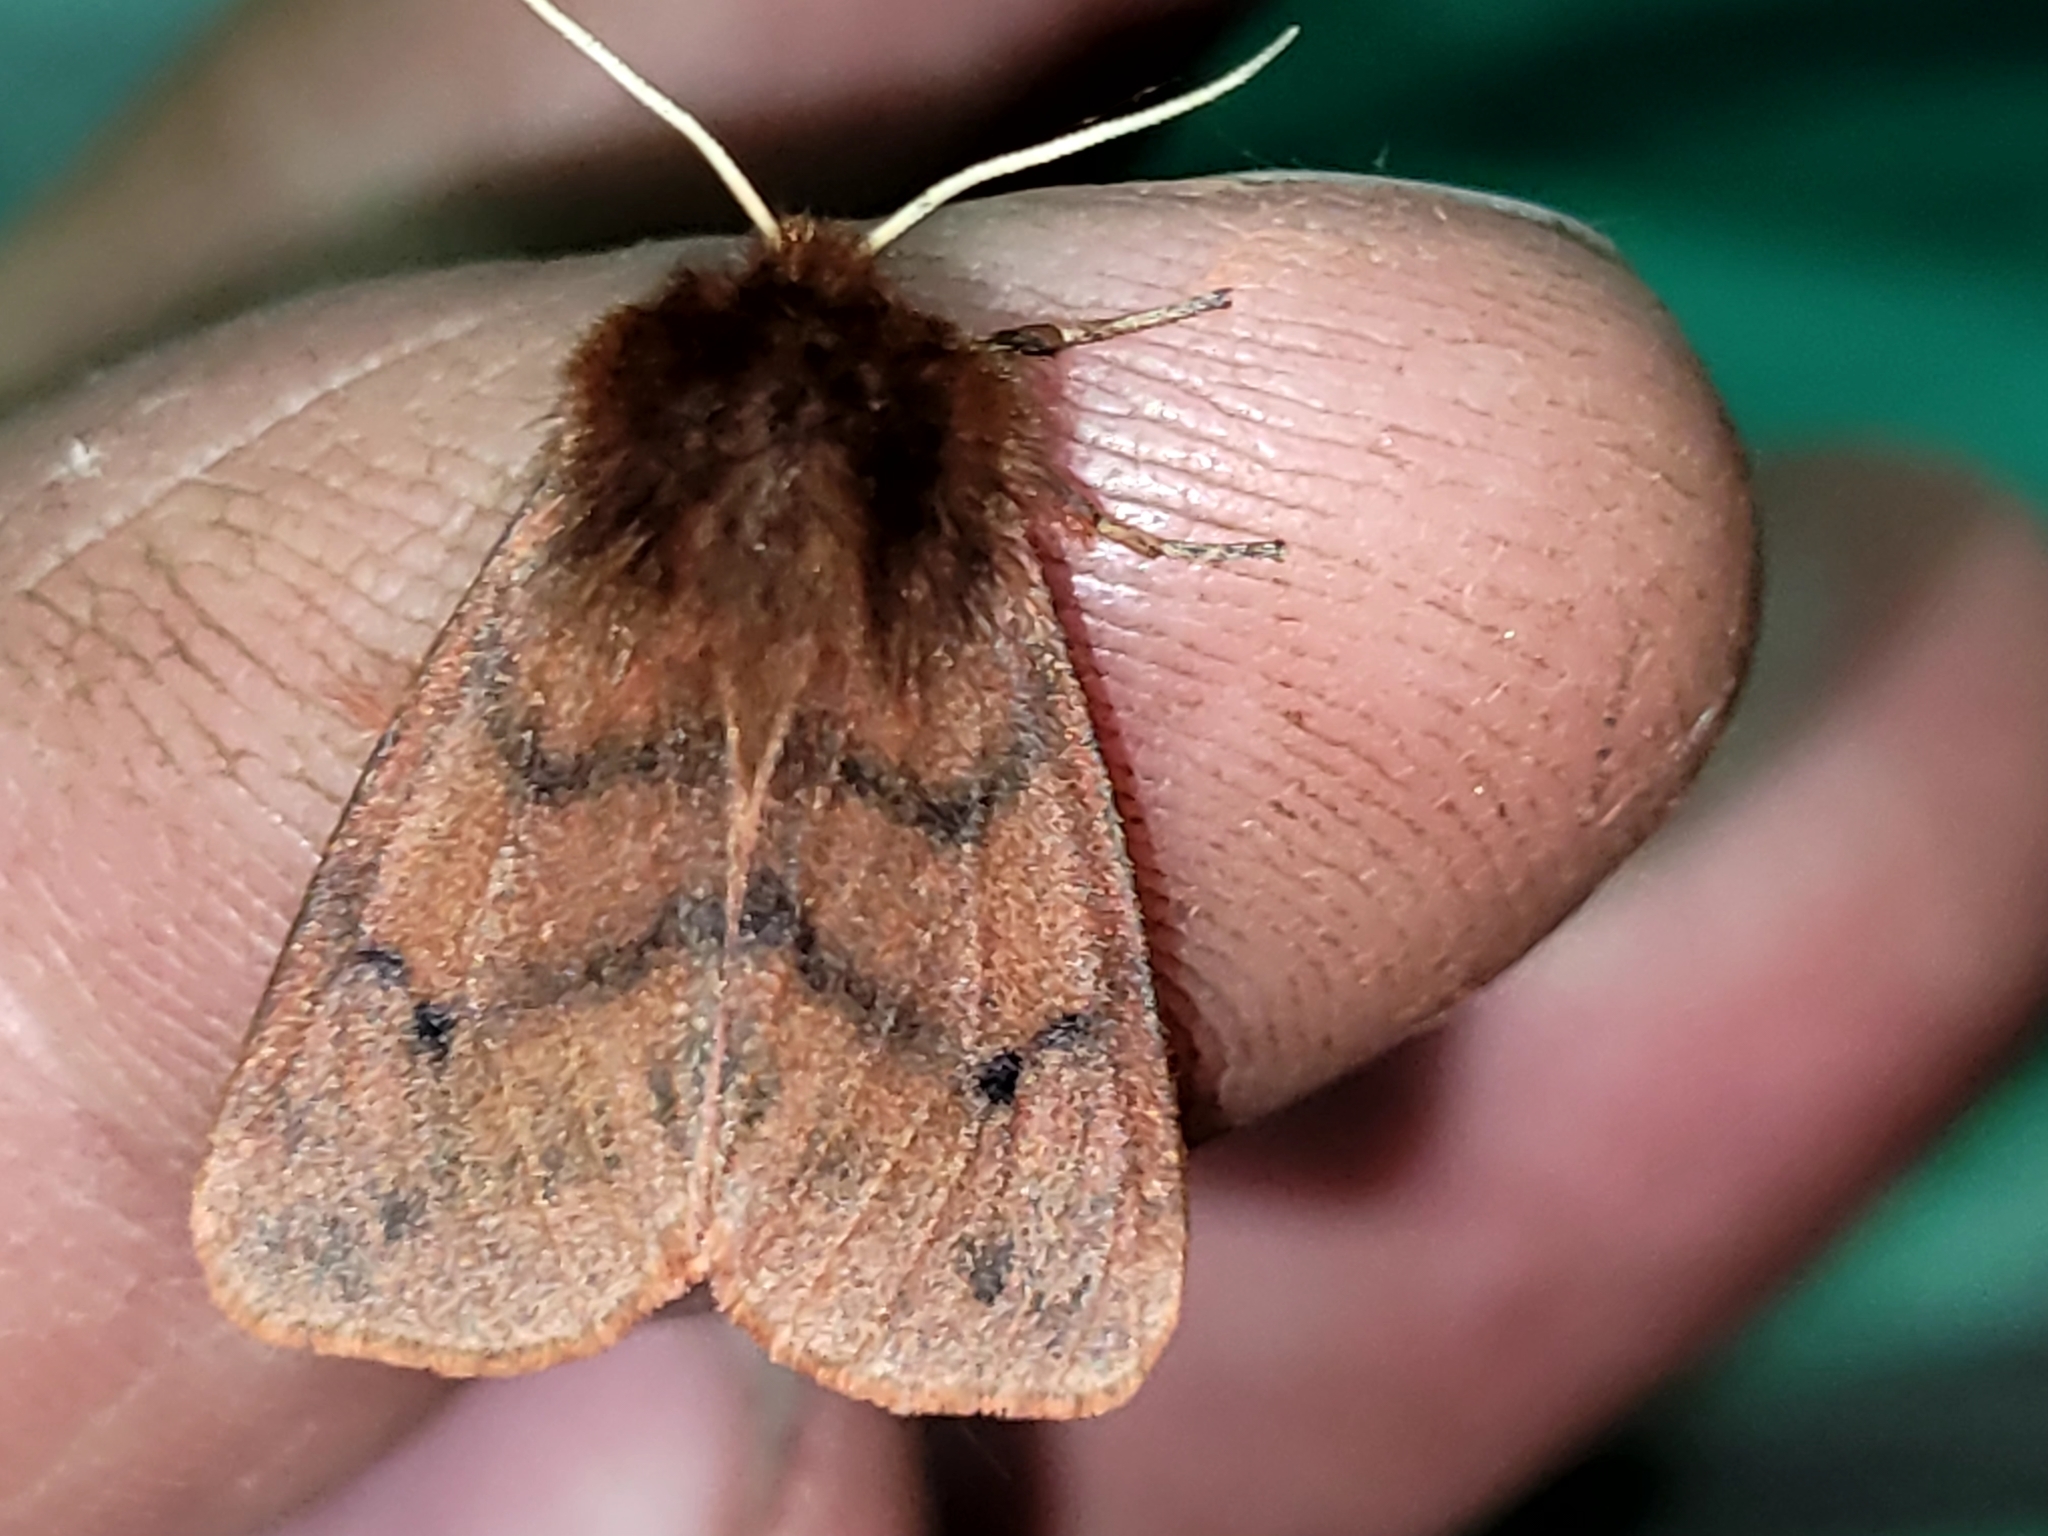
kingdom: Animalia
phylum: Arthropoda
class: Insecta
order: Lepidoptera
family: Erebidae
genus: Phragmatobia
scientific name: Phragmatobia assimilans
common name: Large ruby tiger moth
